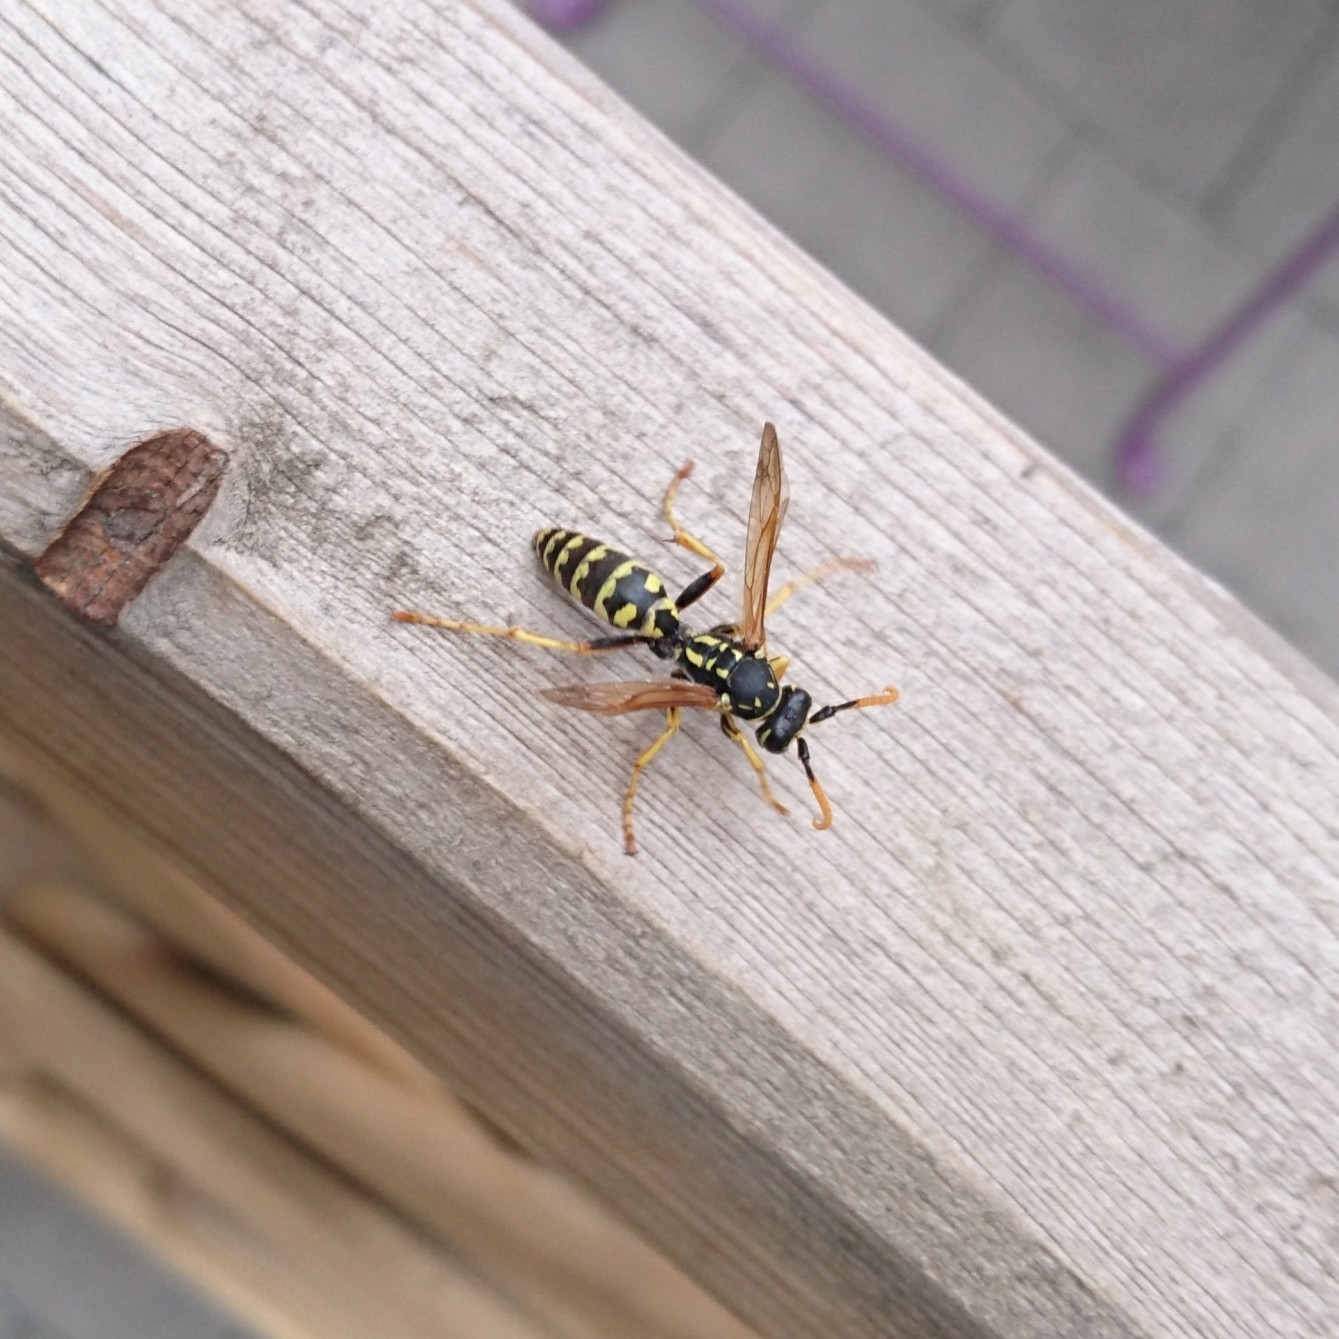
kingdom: Animalia
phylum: Arthropoda
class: Insecta
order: Hymenoptera
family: Eumenidae
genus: Polistes
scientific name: Polistes dominula
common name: Paper wasp
